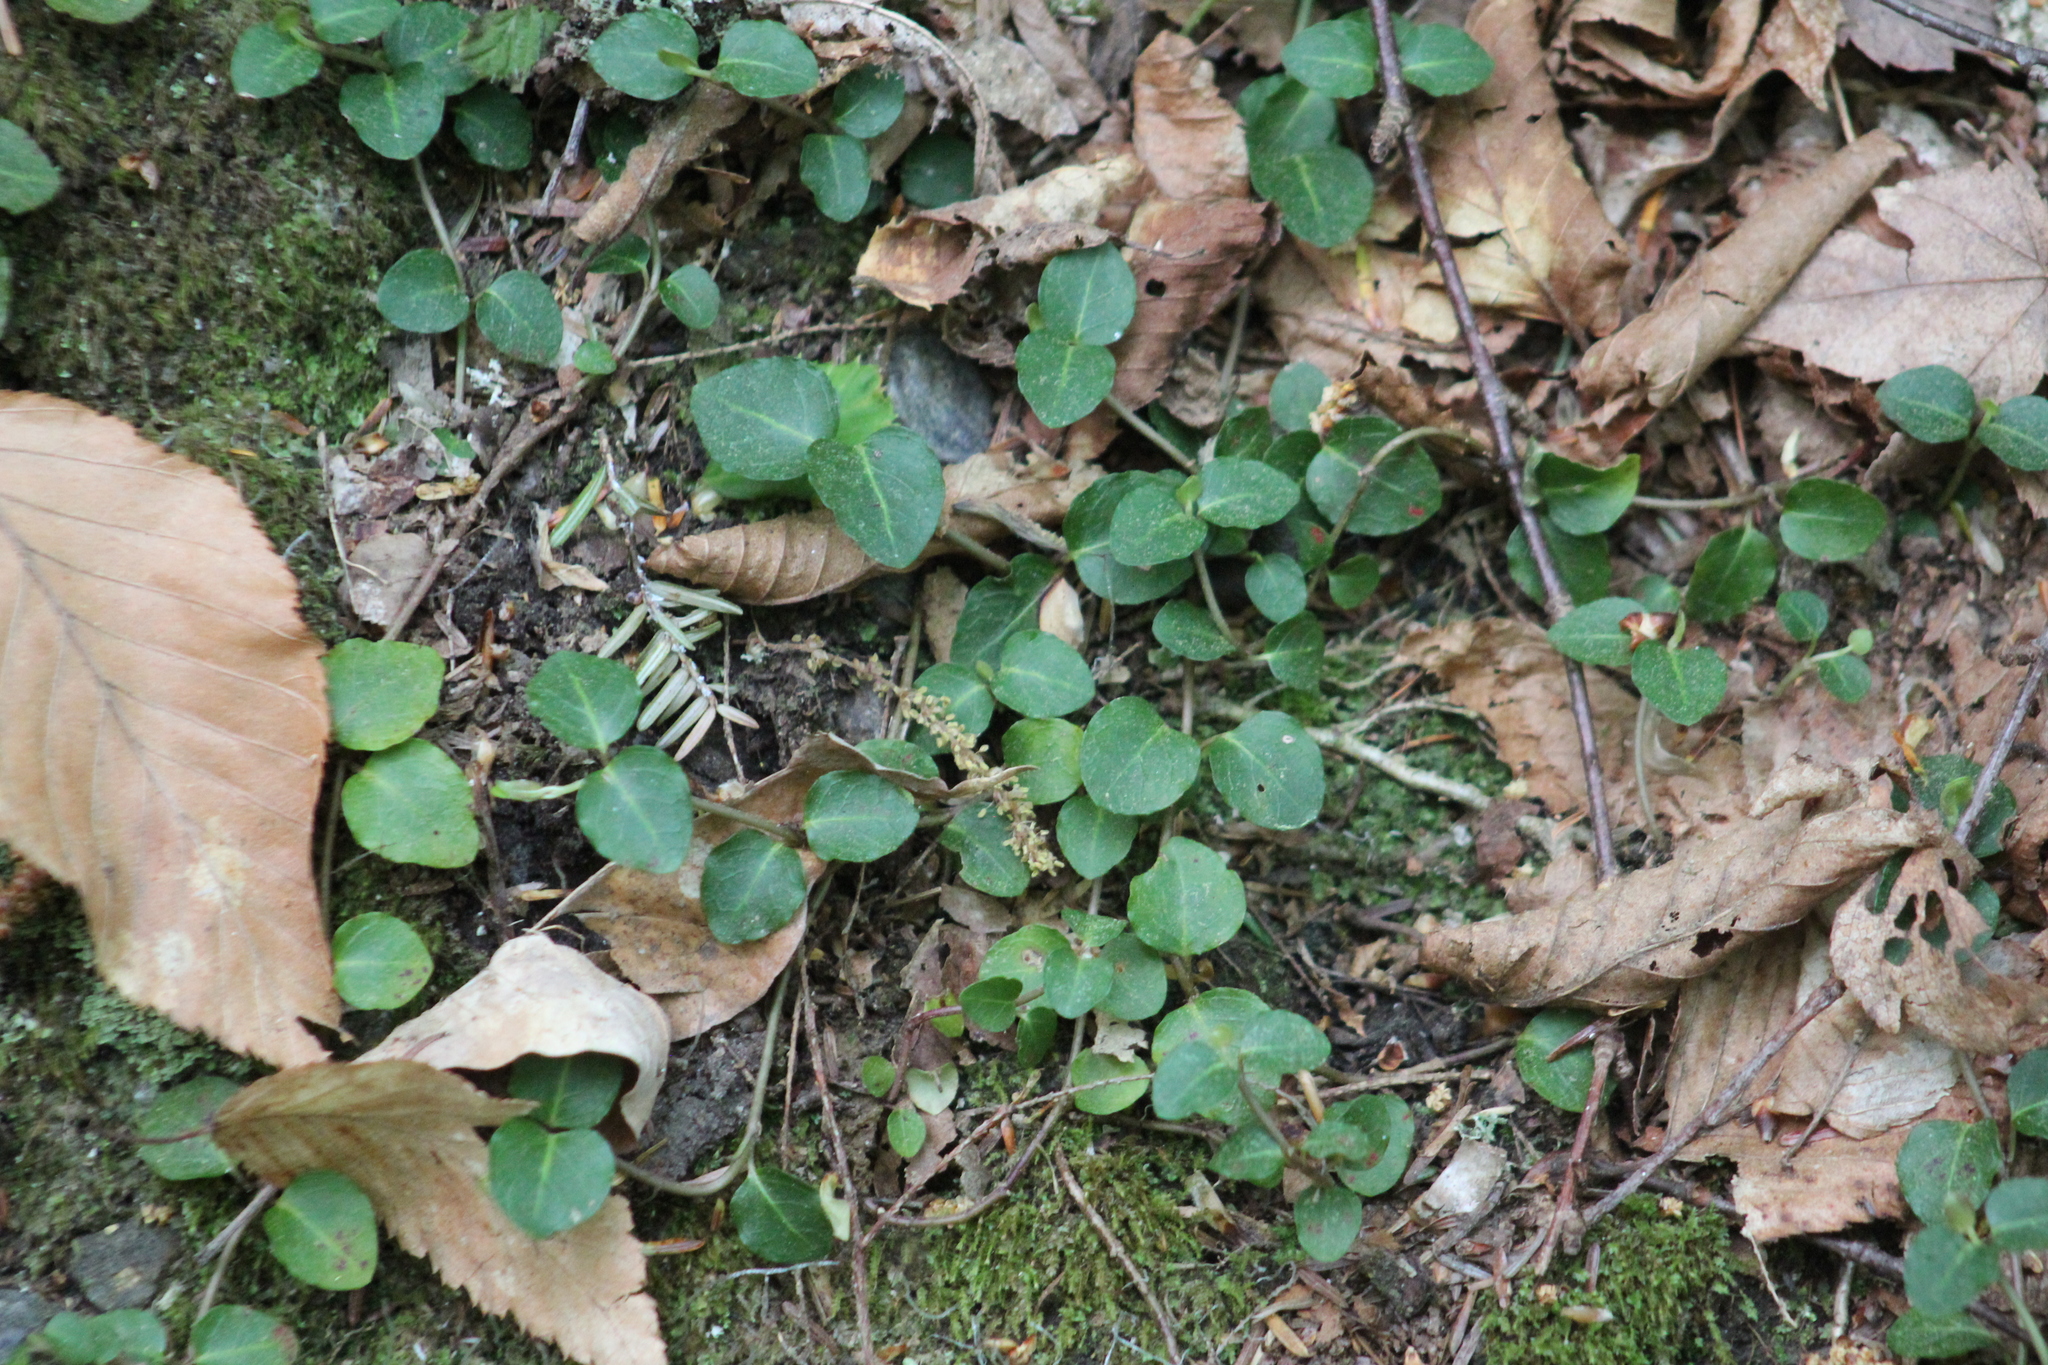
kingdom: Plantae
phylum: Tracheophyta
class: Magnoliopsida
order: Gentianales
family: Rubiaceae
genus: Mitchella
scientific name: Mitchella repens
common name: Partridge-berry
